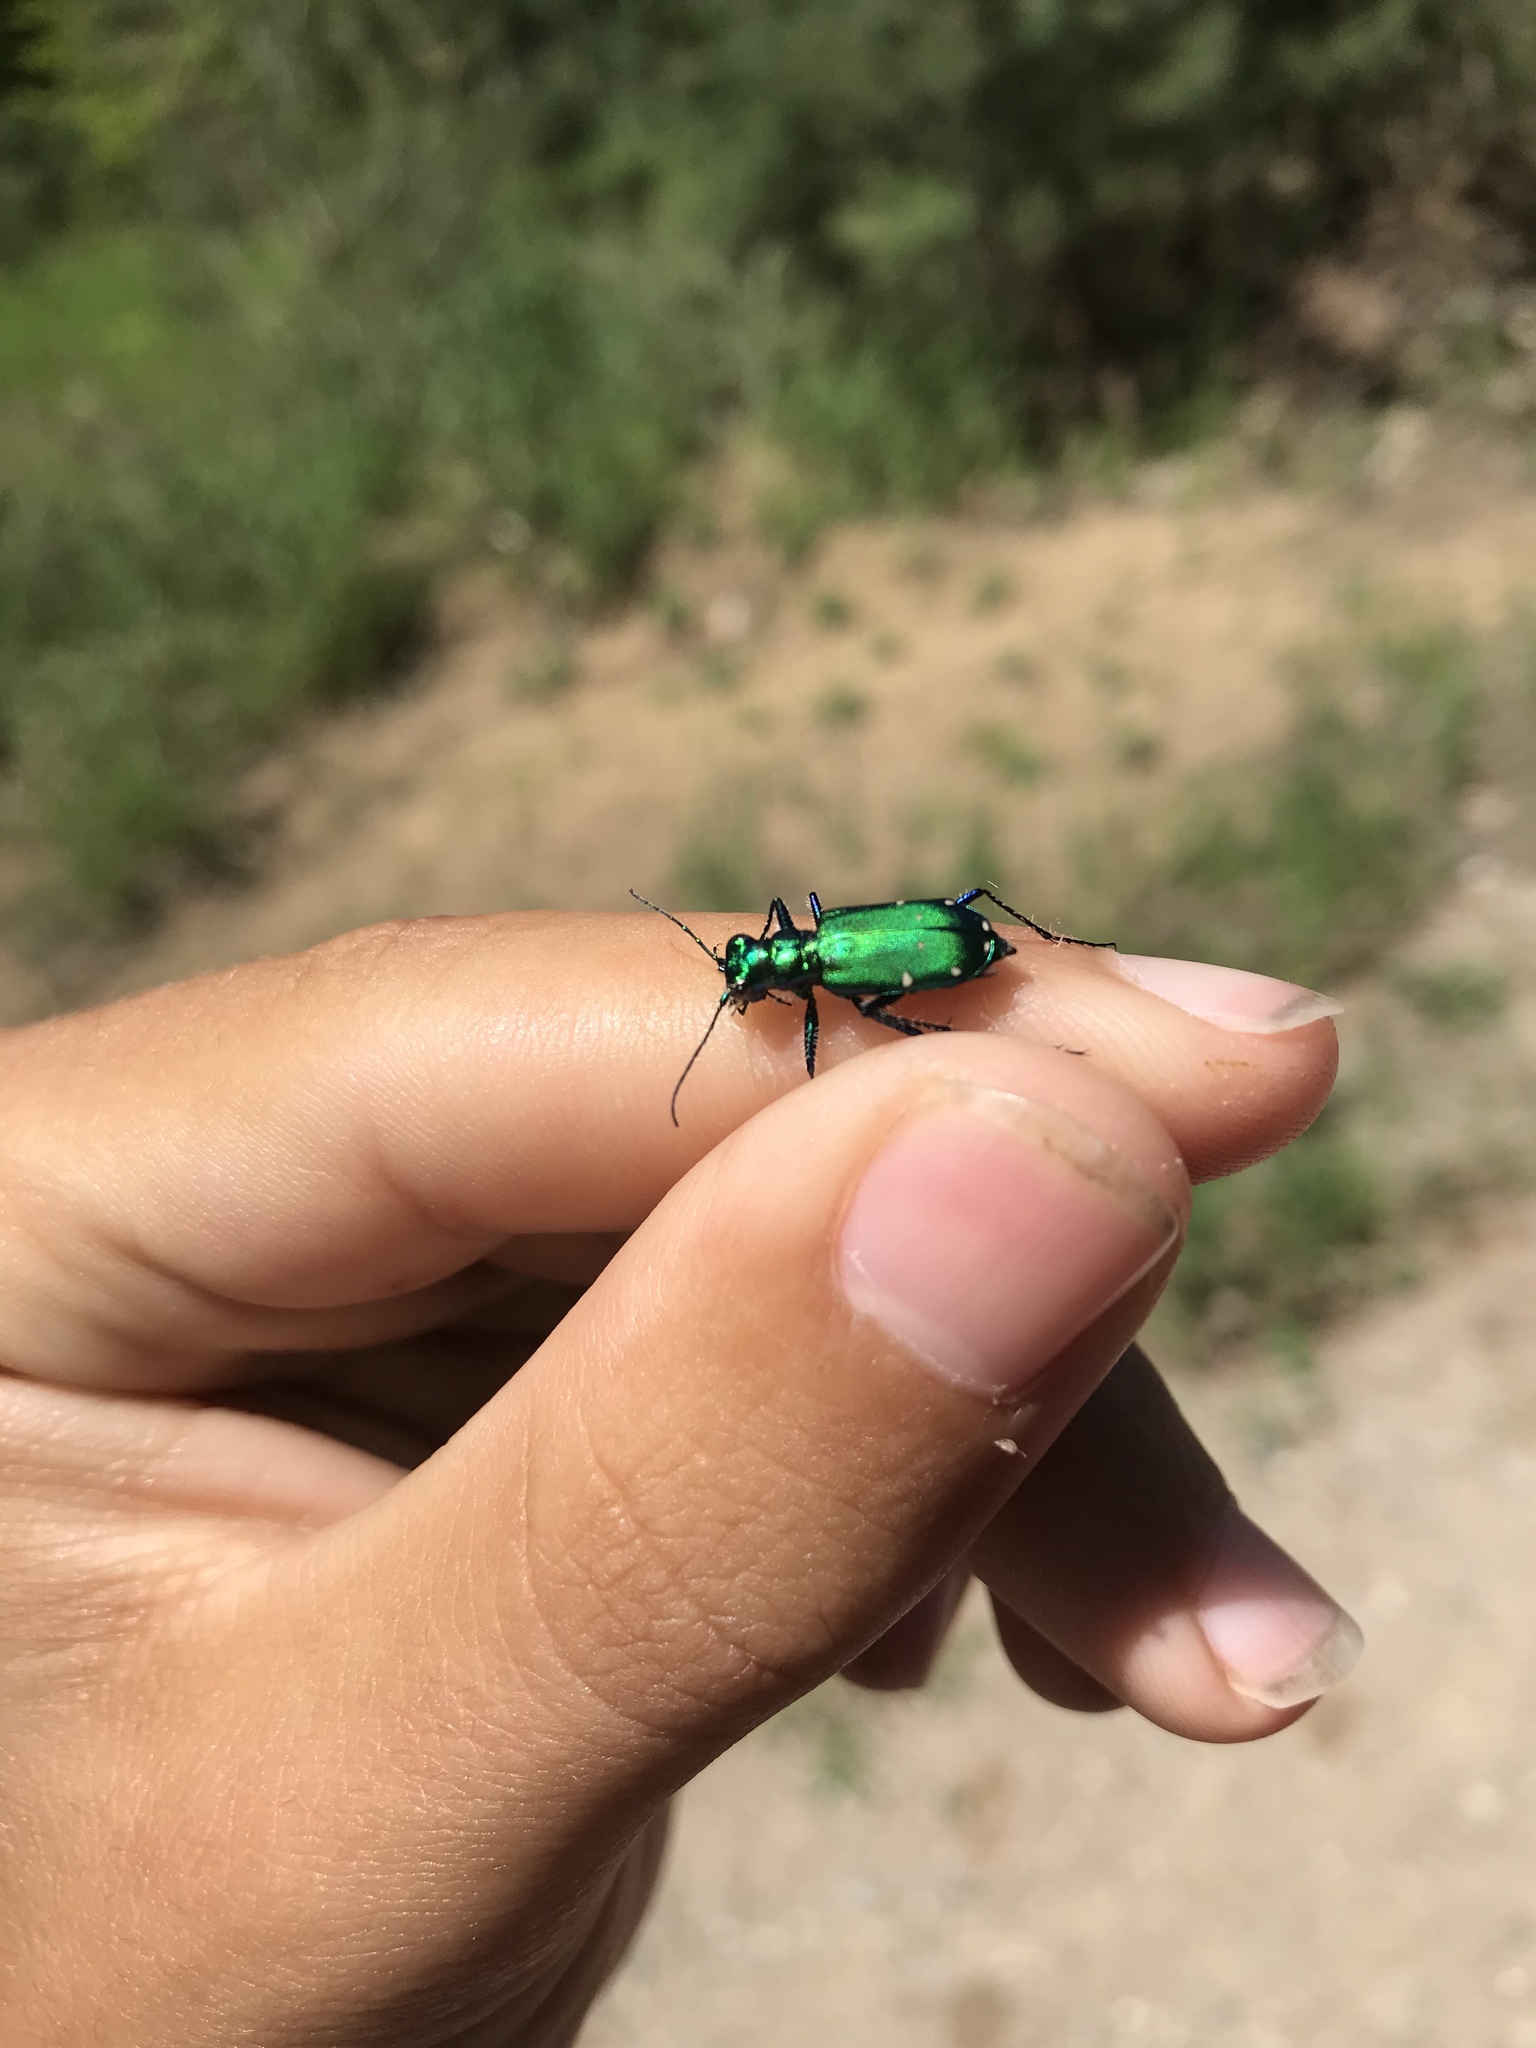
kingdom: Animalia
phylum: Arthropoda
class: Insecta
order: Coleoptera
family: Carabidae
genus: Cicindela
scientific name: Cicindela sexguttata
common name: Six-spotted tiger beetle
